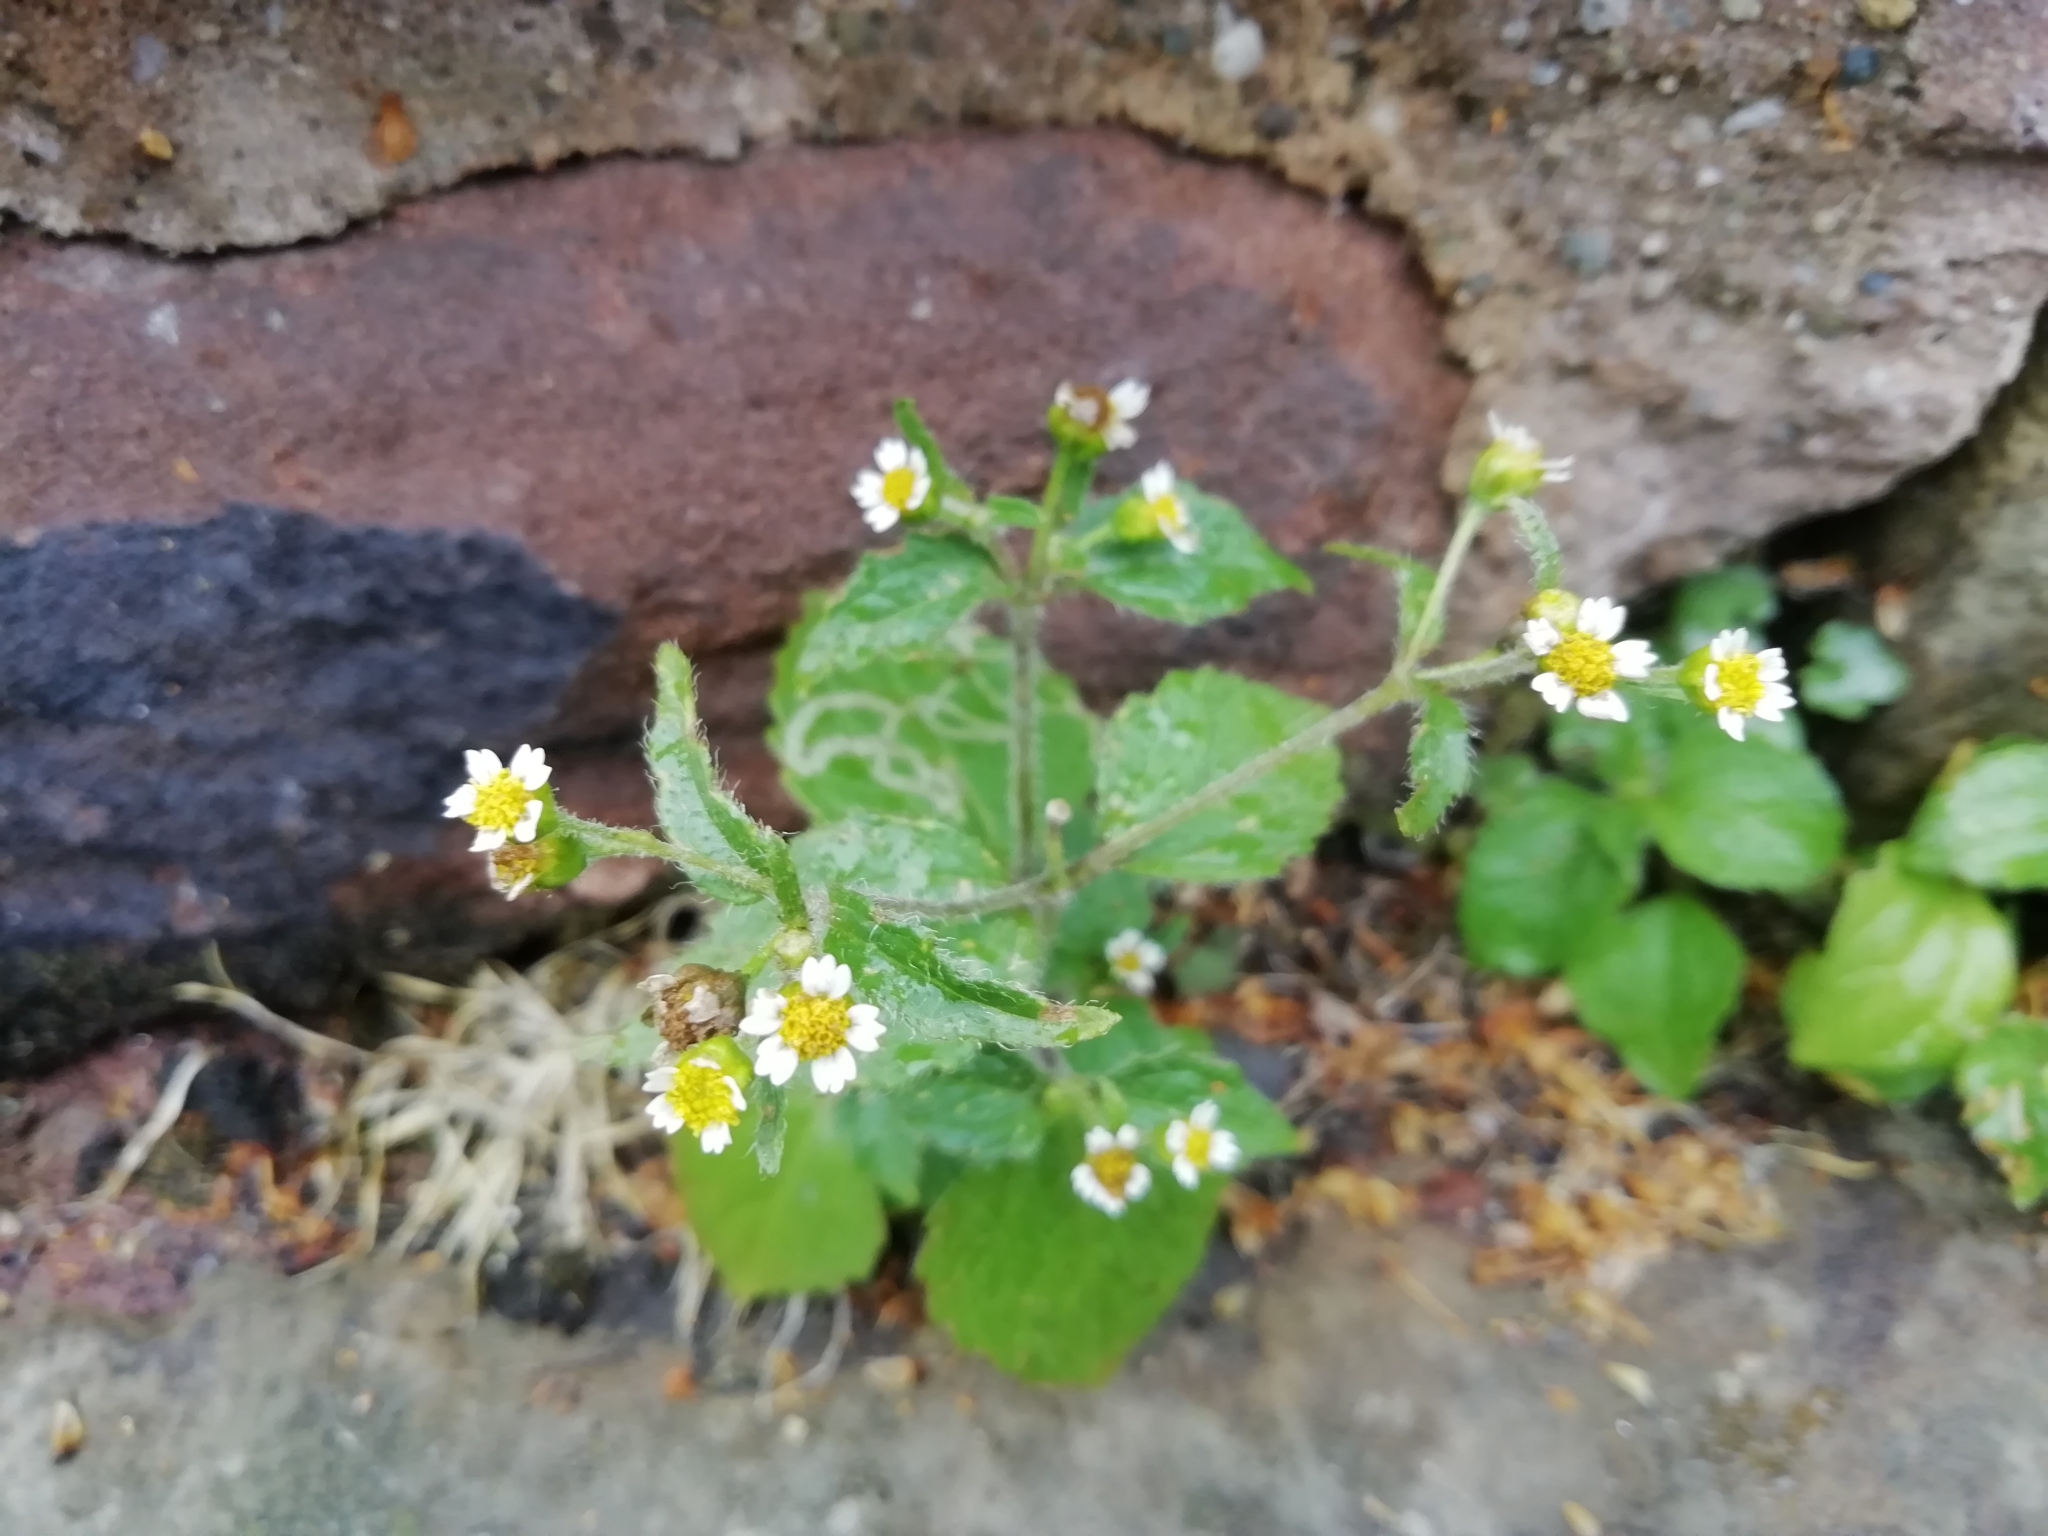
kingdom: Plantae
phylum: Tracheophyta
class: Magnoliopsida
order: Asterales
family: Asteraceae
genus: Galinsoga
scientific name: Galinsoga quadriradiata
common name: Shaggy soldier
